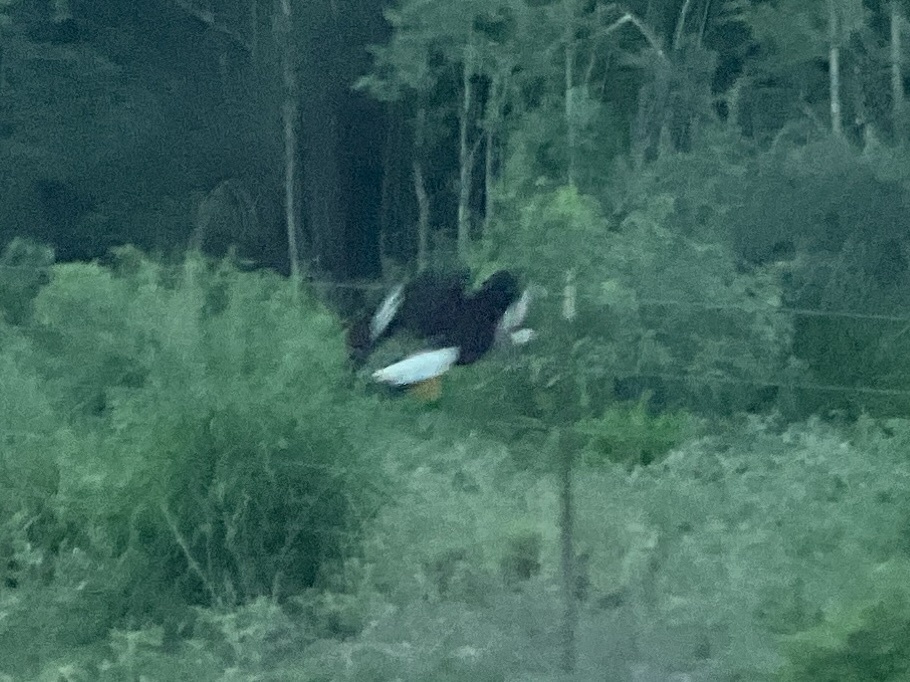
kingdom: Animalia
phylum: Chordata
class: Aves
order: Falconiformes
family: Falconidae
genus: Caracara
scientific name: Caracara plancus
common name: Southern caracara
